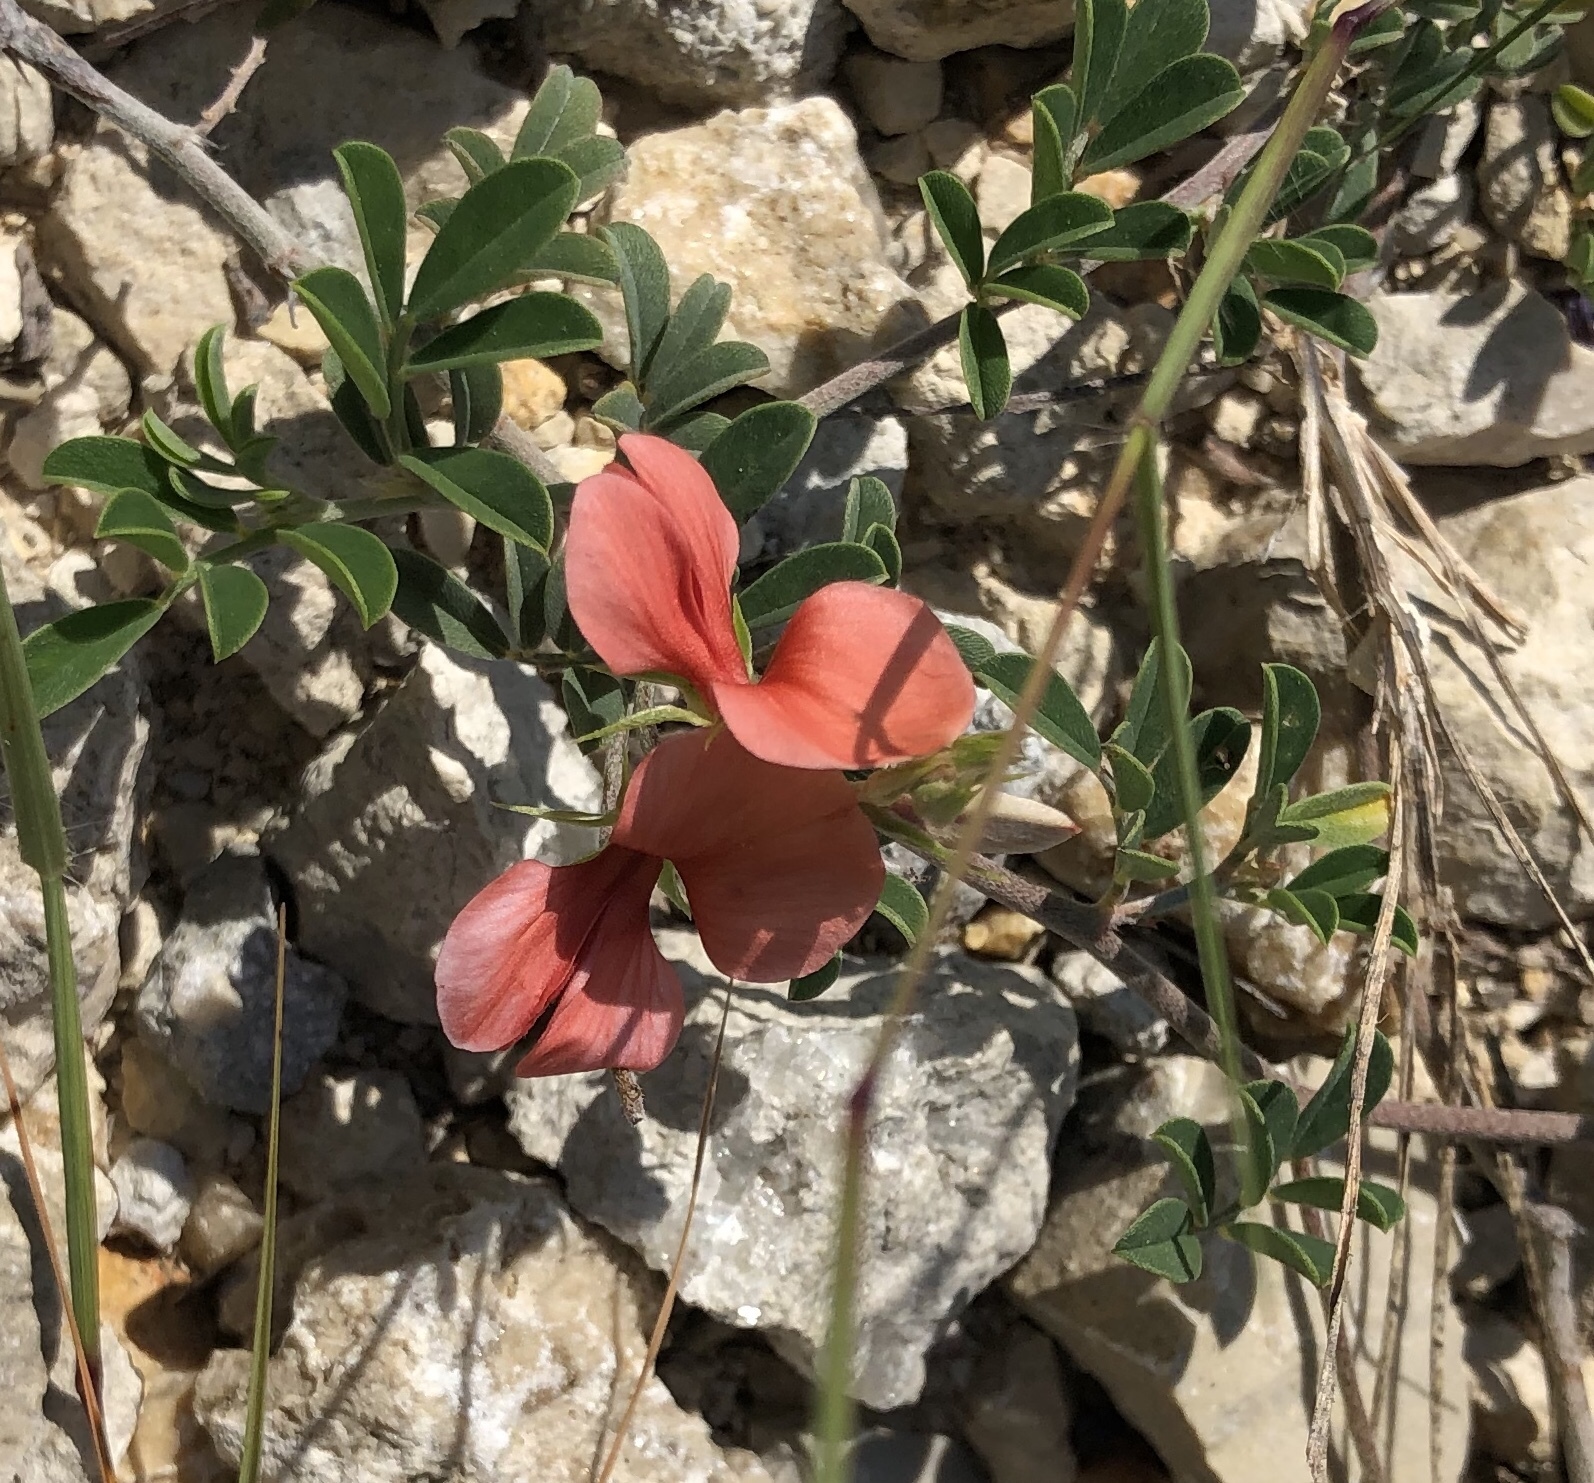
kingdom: Plantae
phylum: Tracheophyta
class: Magnoliopsida
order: Fabales
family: Fabaceae
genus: Indigofera
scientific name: Indigofera miniata
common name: Coast indigo
